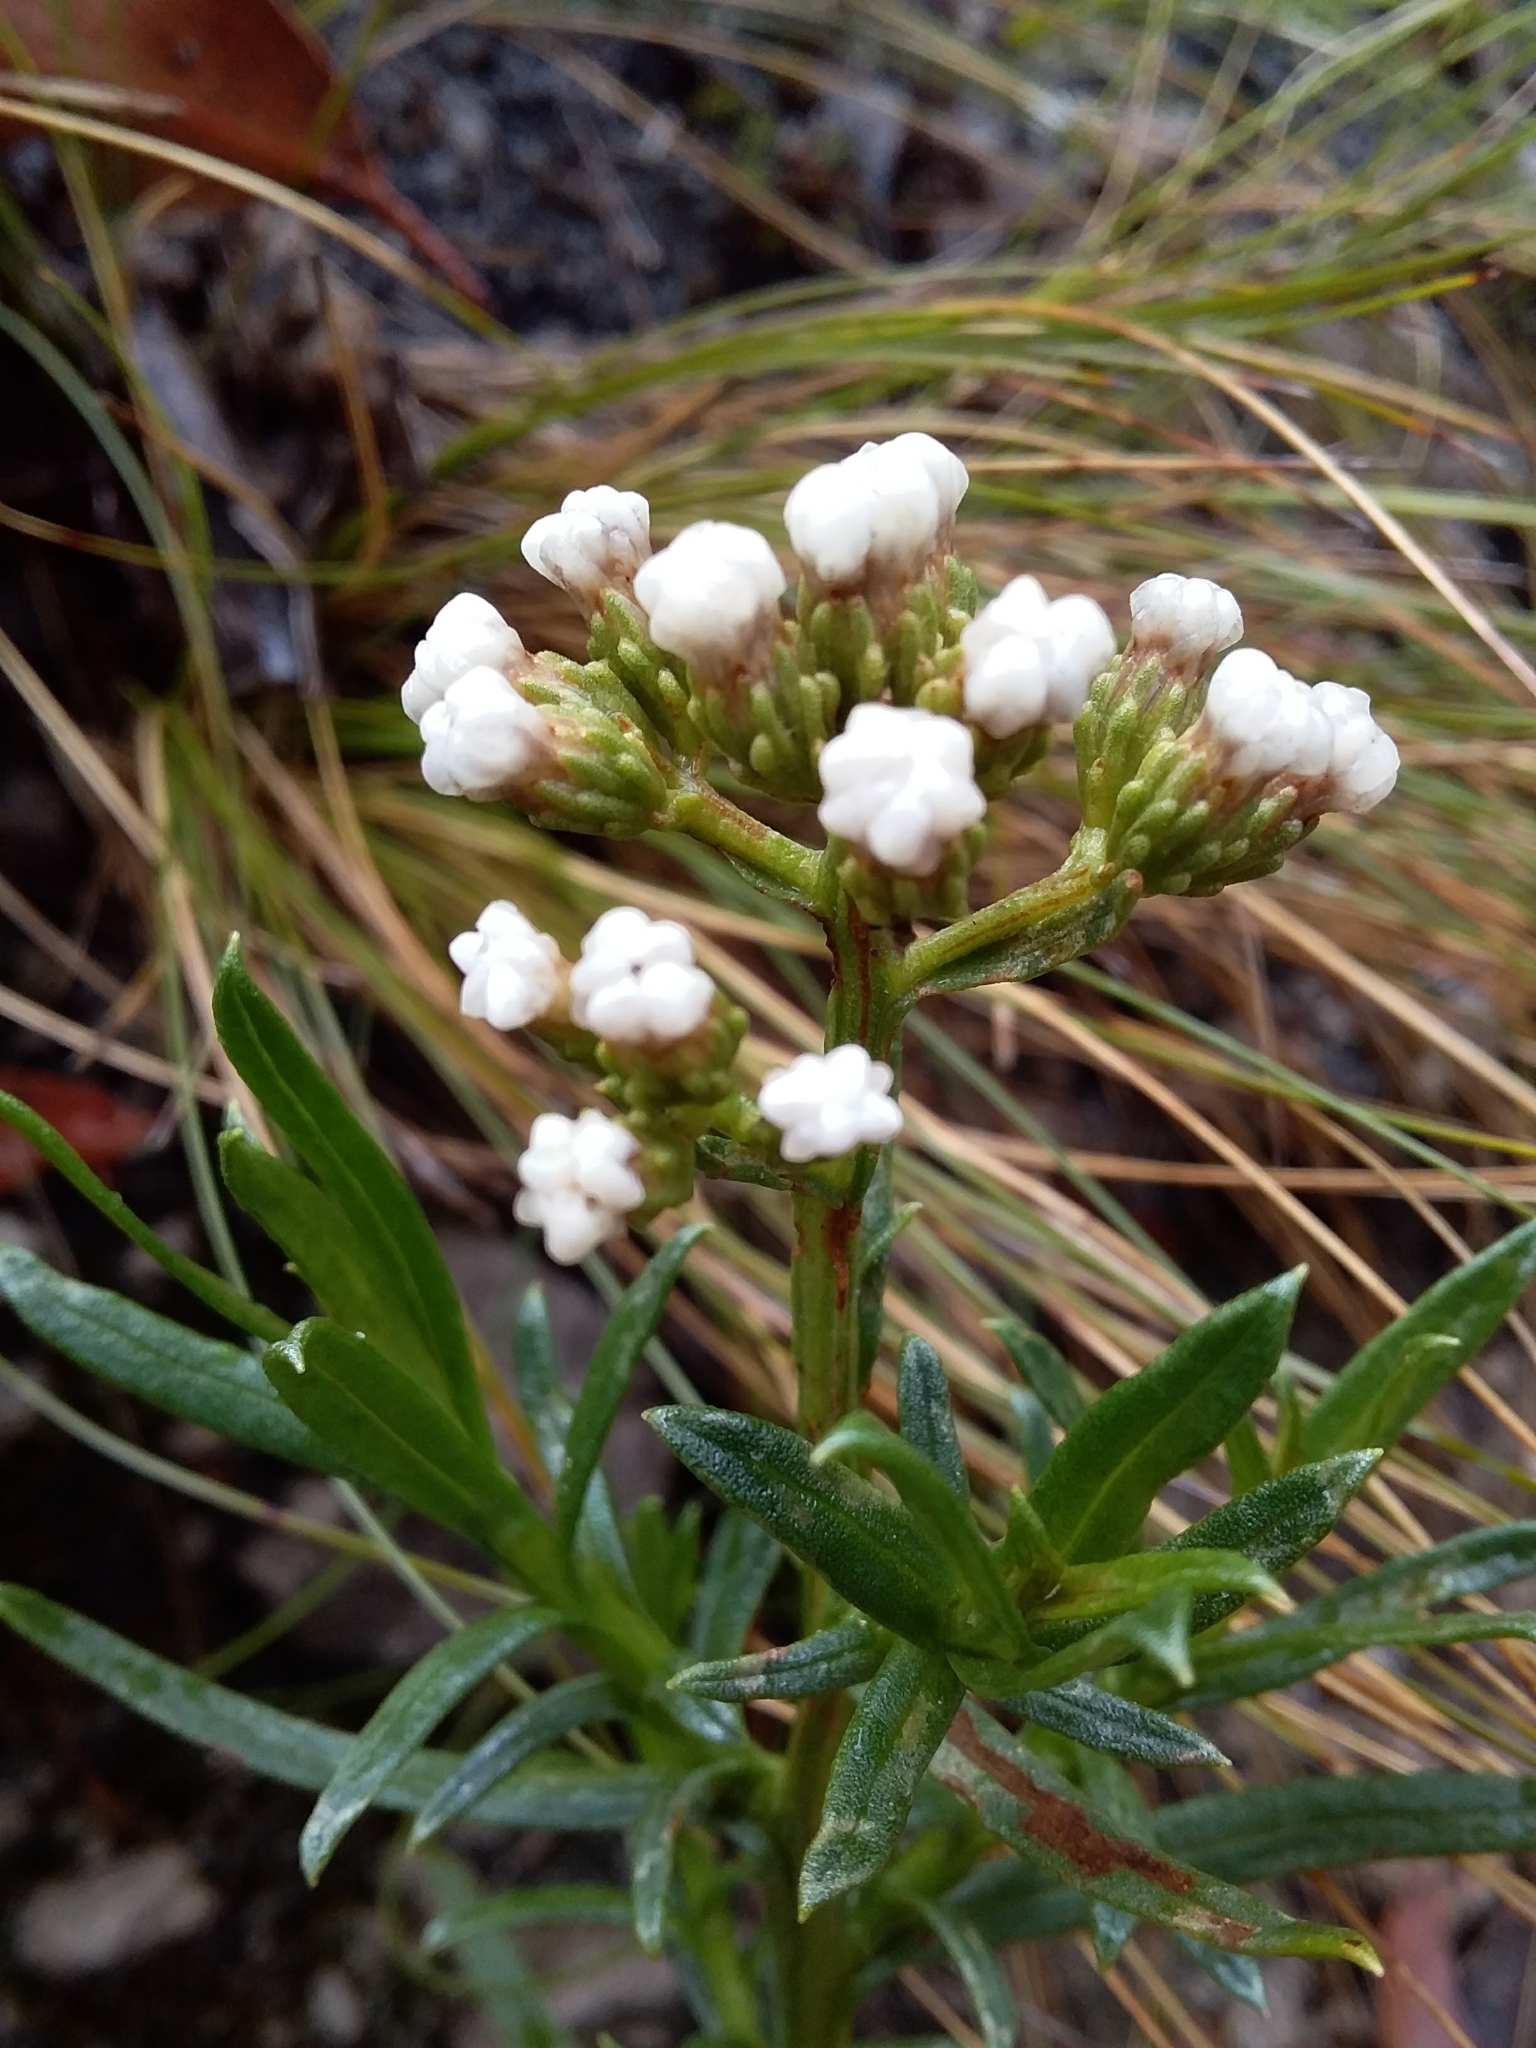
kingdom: Plantae
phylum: Tracheophyta
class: Magnoliopsida
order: Asterales
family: Asteraceae
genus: Ixodia
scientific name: Ixodia achillaeoides
